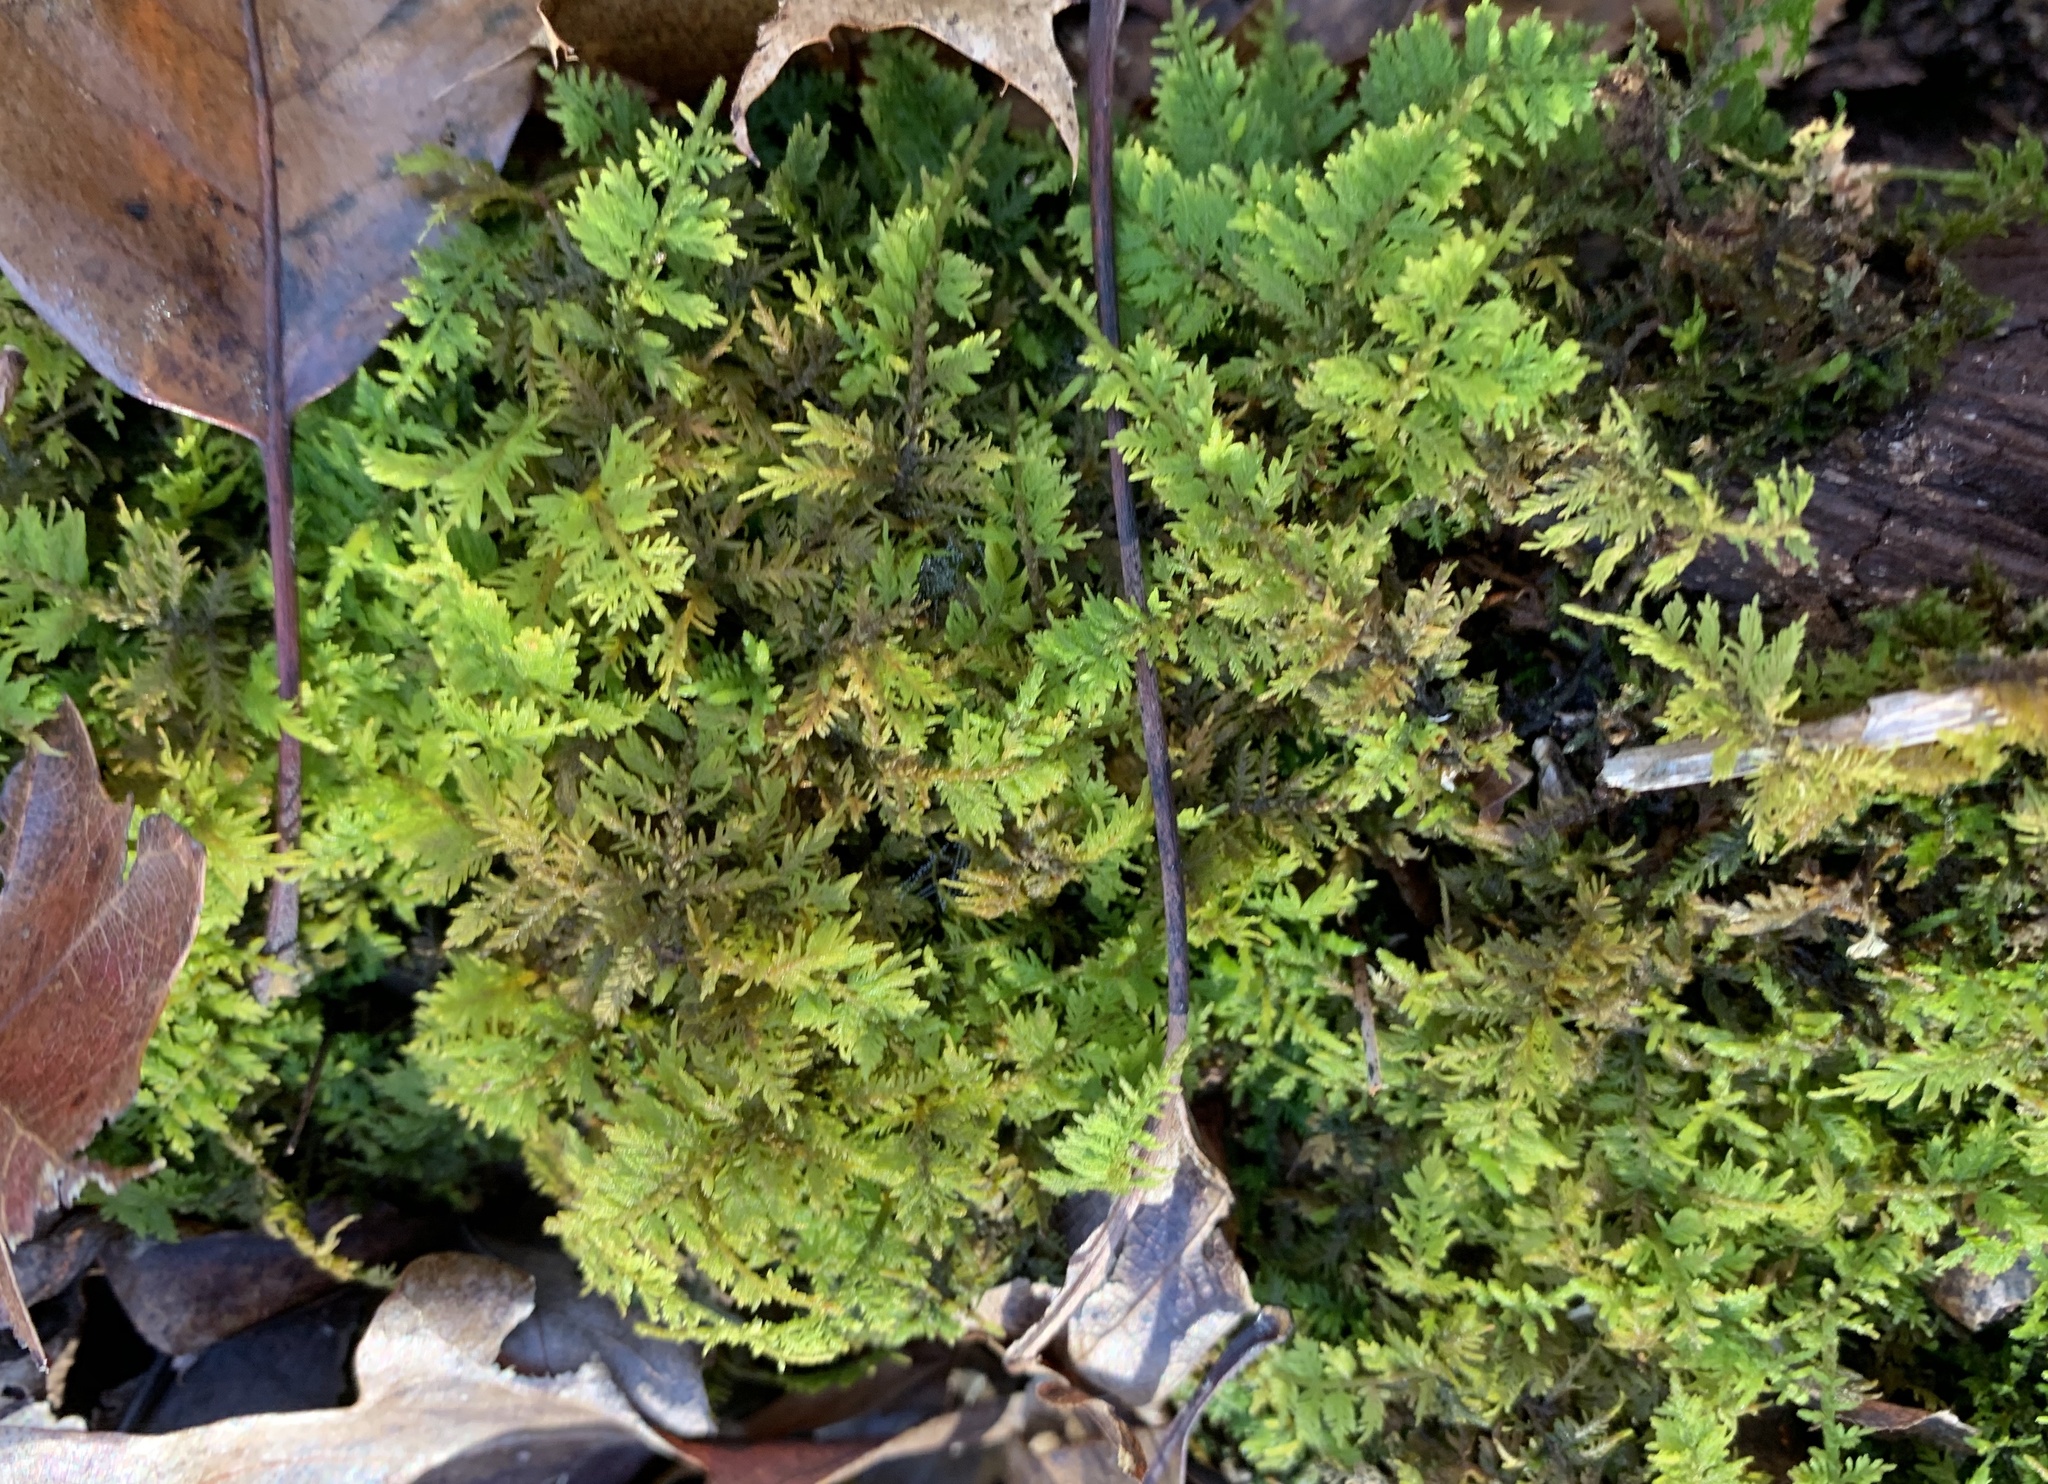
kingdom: Plantae
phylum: Bryophyta
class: Bryopsida
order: Hypnales
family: Thuidiaceae
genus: Thuidium
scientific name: Thuidium delicatulum
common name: Delicate fern moss
